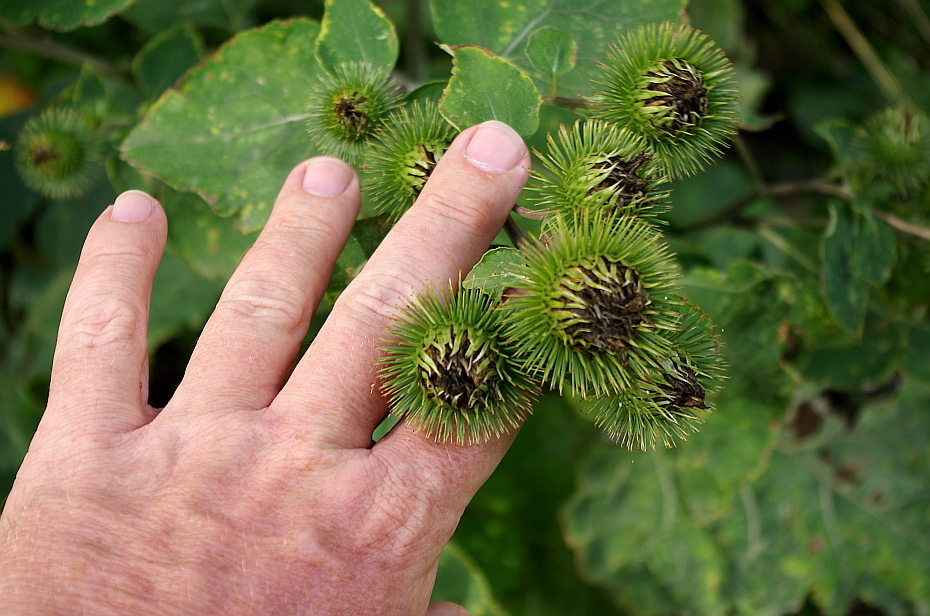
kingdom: Plantae
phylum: Tracheophyta
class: Magnoliopsida
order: Asterales
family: Asteraceae
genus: Arctium
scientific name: Arctium lappa
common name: Greater burdock
